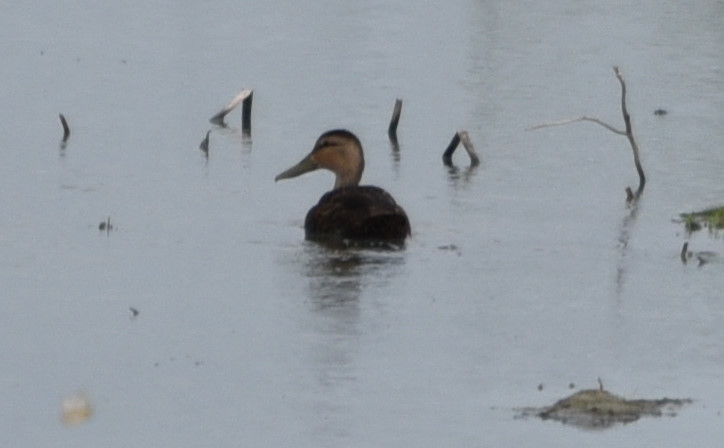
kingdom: Animalia
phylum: Chordata
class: Aves
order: Anseriformes
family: Anatidae
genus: Anas
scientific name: Anas fulvigula
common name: Mottled duck
